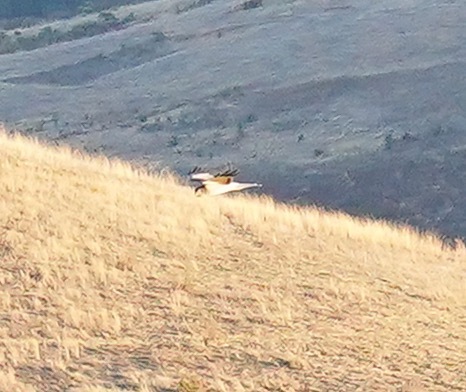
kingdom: Animalia
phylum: Chordata
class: Aves
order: Accipitriformes
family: Accipitridae
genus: Circus
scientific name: Circus cyaneus
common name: Hen harrier
